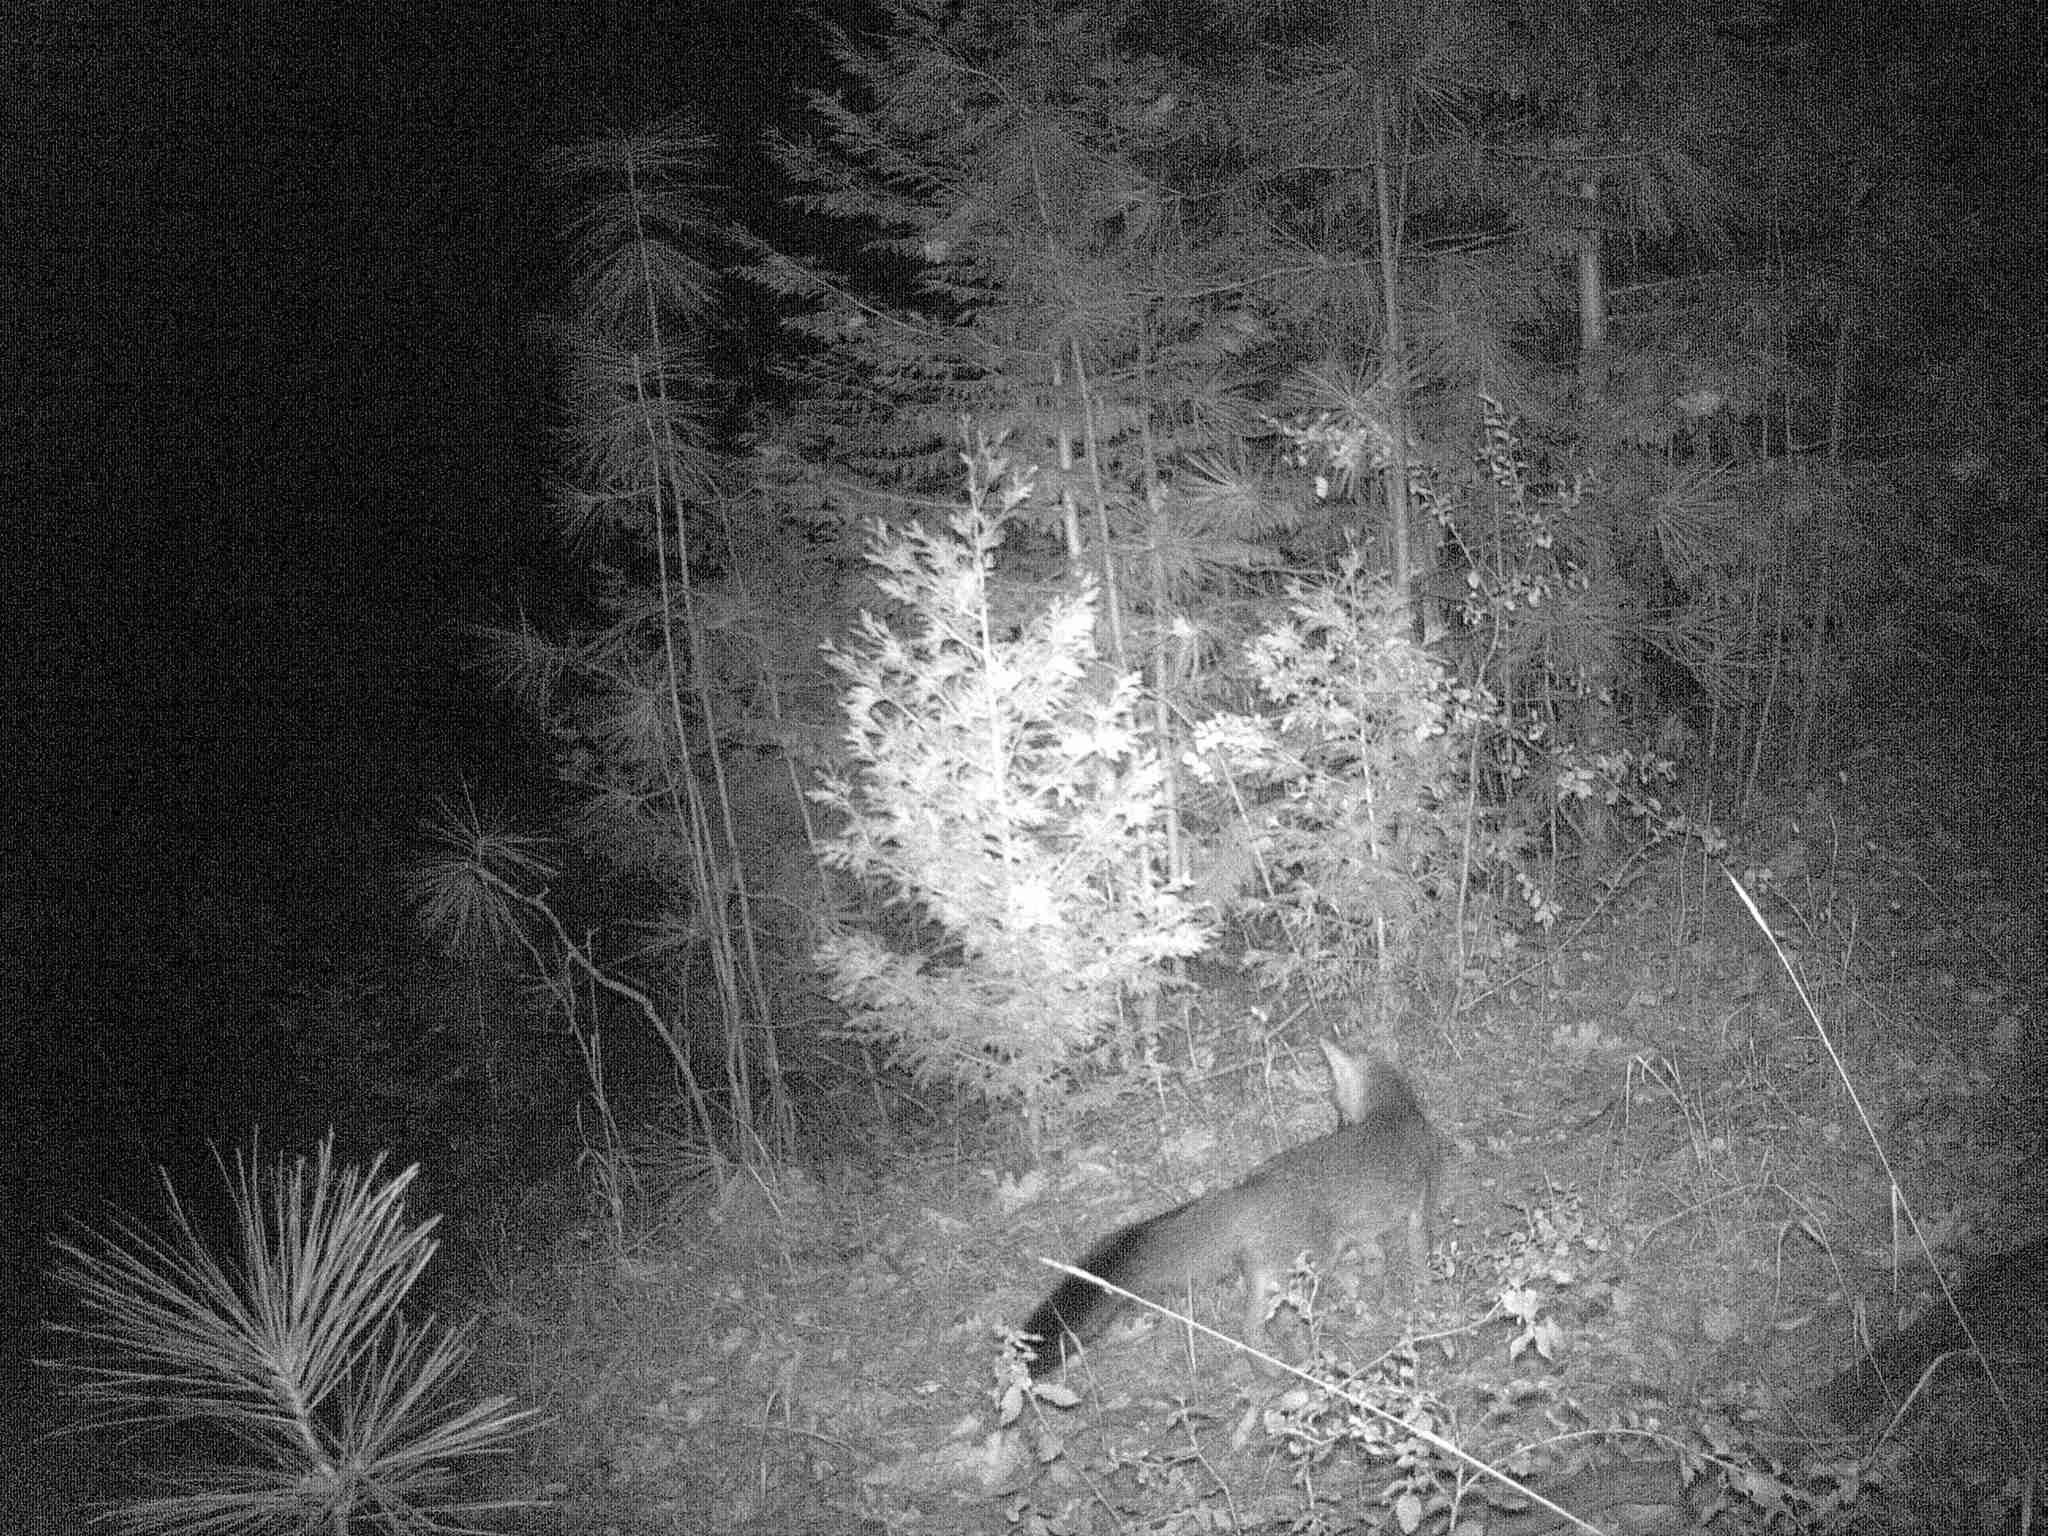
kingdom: Animalia
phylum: Chordata
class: Mammalia
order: Carnivora
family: Canidae
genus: Urocyon
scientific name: Urocyon cinereoargenteus
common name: Gray fox
